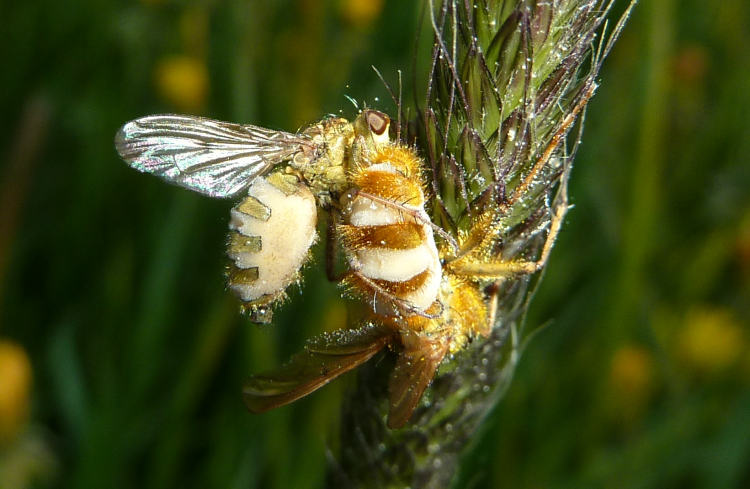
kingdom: Fungi
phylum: Entomophthoromycota
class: Entomophthoromycetes
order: Entomophthorales
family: Entomophthoraceae
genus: Entomophthora
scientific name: Entomophthora
